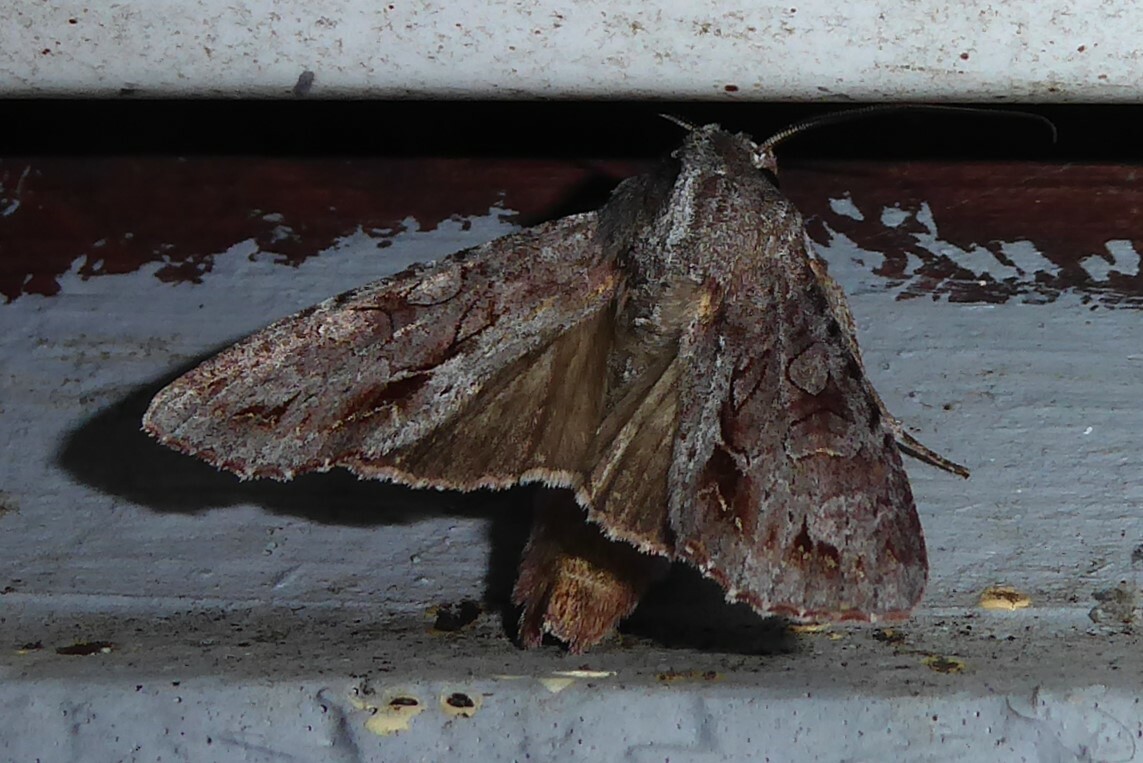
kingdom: Animalia
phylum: Arthropoda
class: Insecta
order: Lepidoptera
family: Noctuidae
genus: Ichneutica
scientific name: Ichneutica
